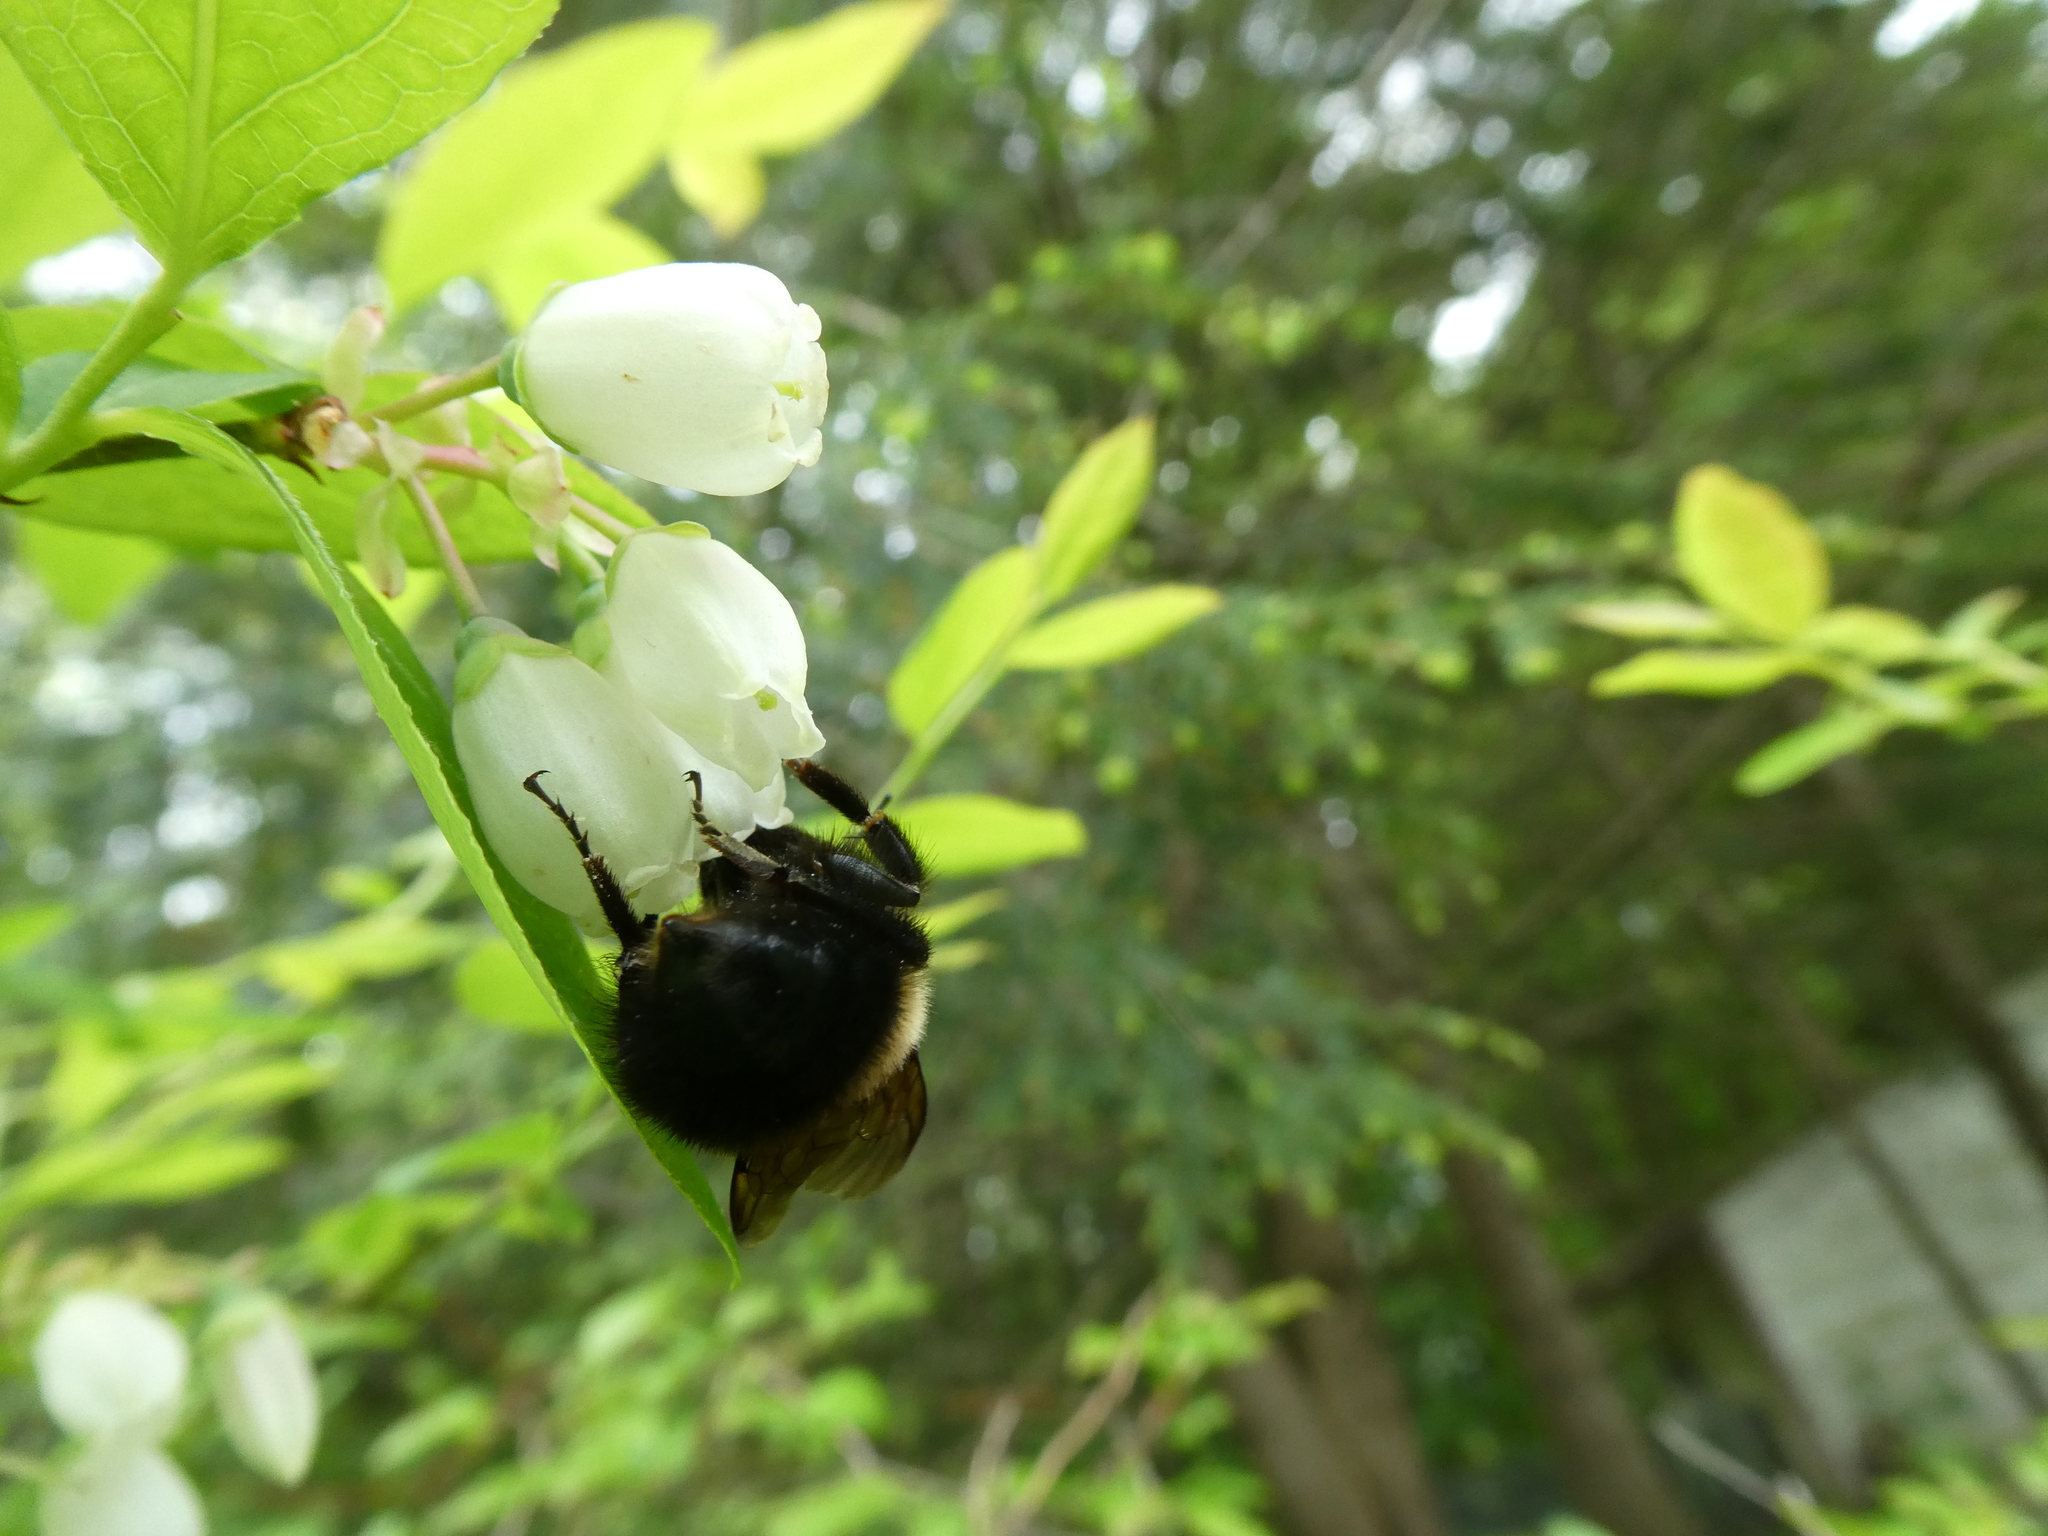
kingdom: Animalia
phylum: Arthropoda
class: Insecta
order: Hymenoptera
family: Apidae
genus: Bombus
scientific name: Bombus perplexus
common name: Confusing bumble bee
